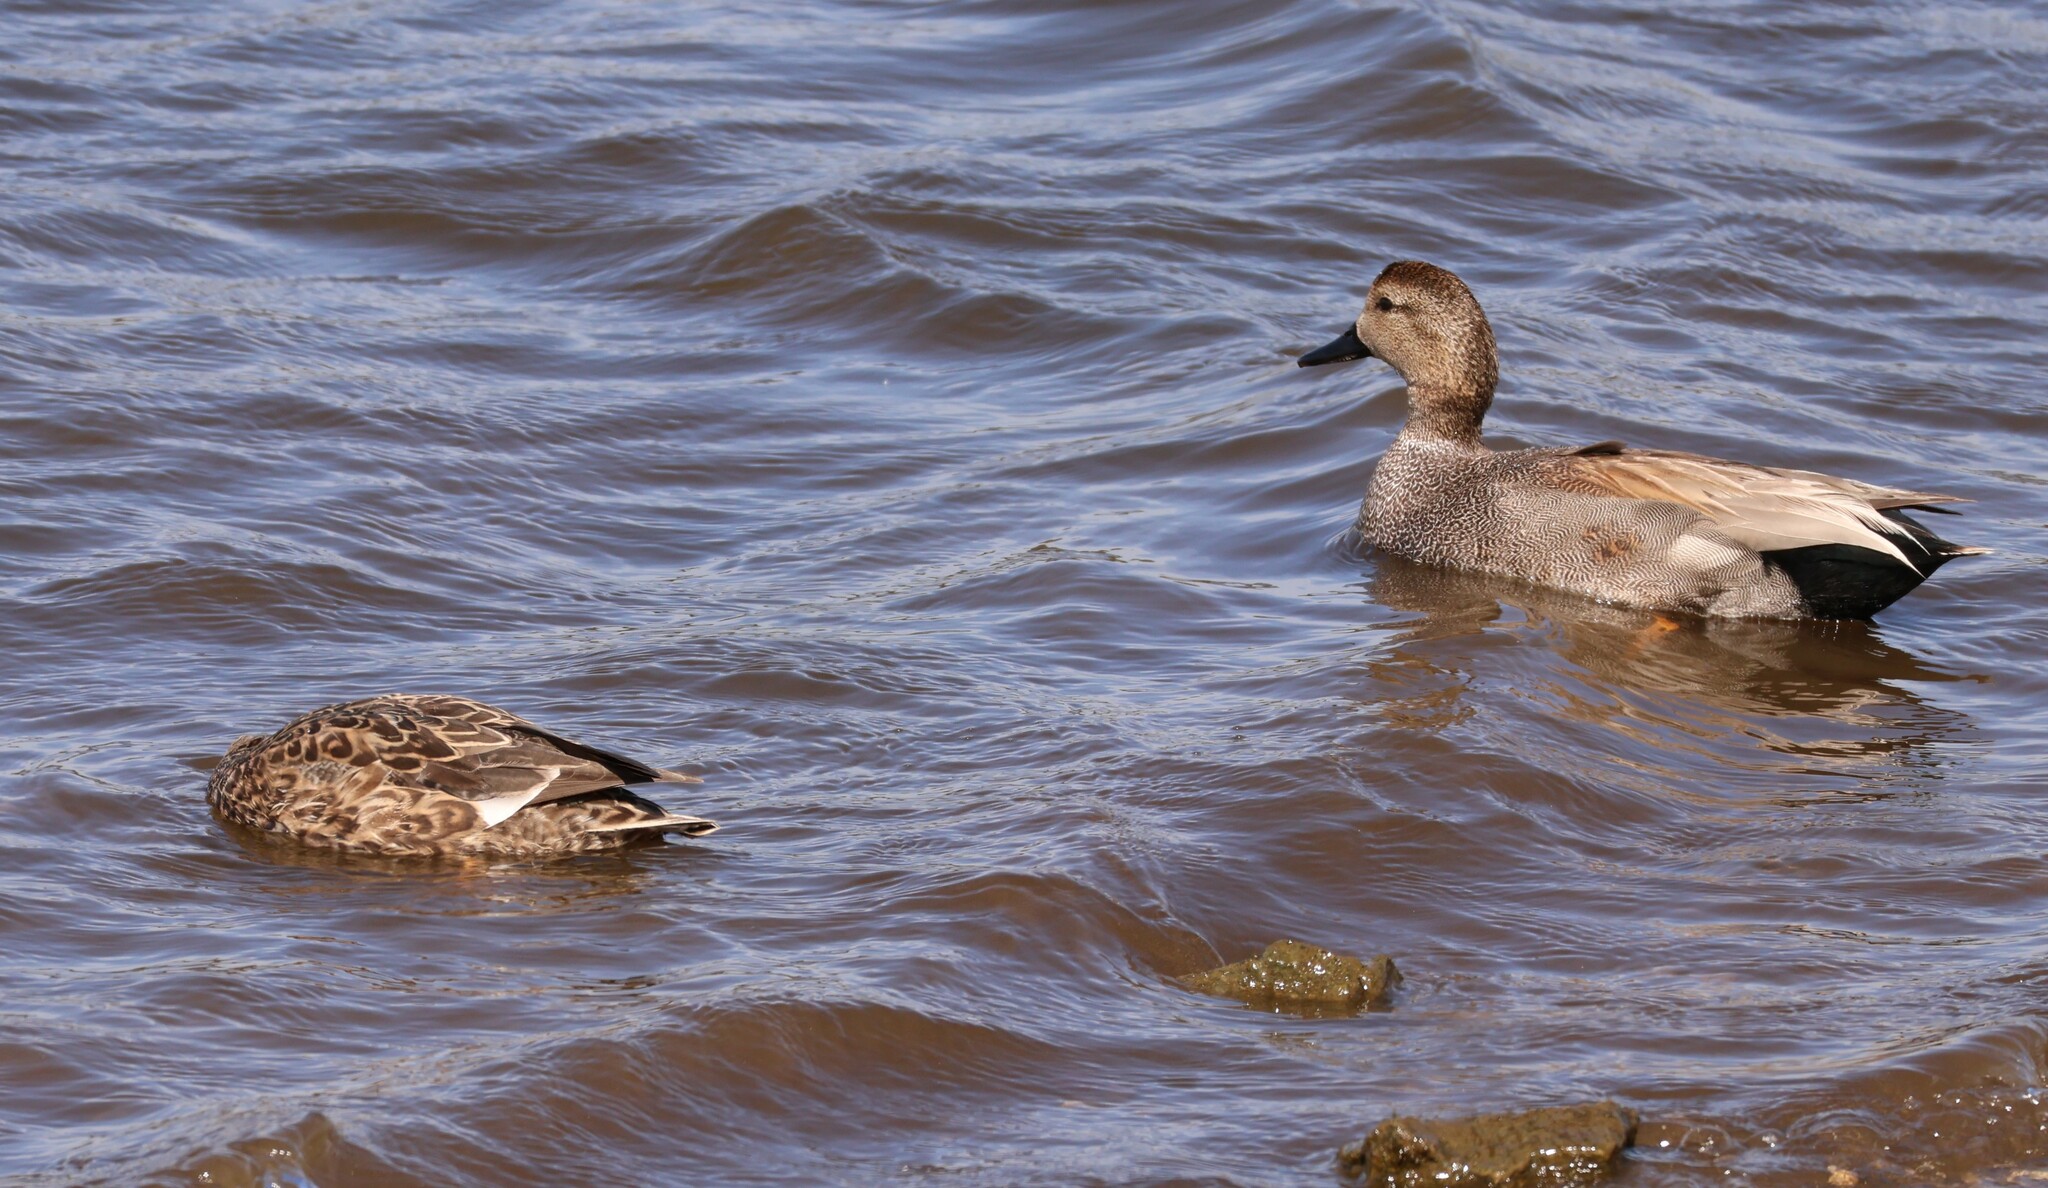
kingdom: Animalia
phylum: Chordata
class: Aves
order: Anseriformes
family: Anatidae
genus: Mareca
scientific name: Mareca strepera
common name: Gadwall
